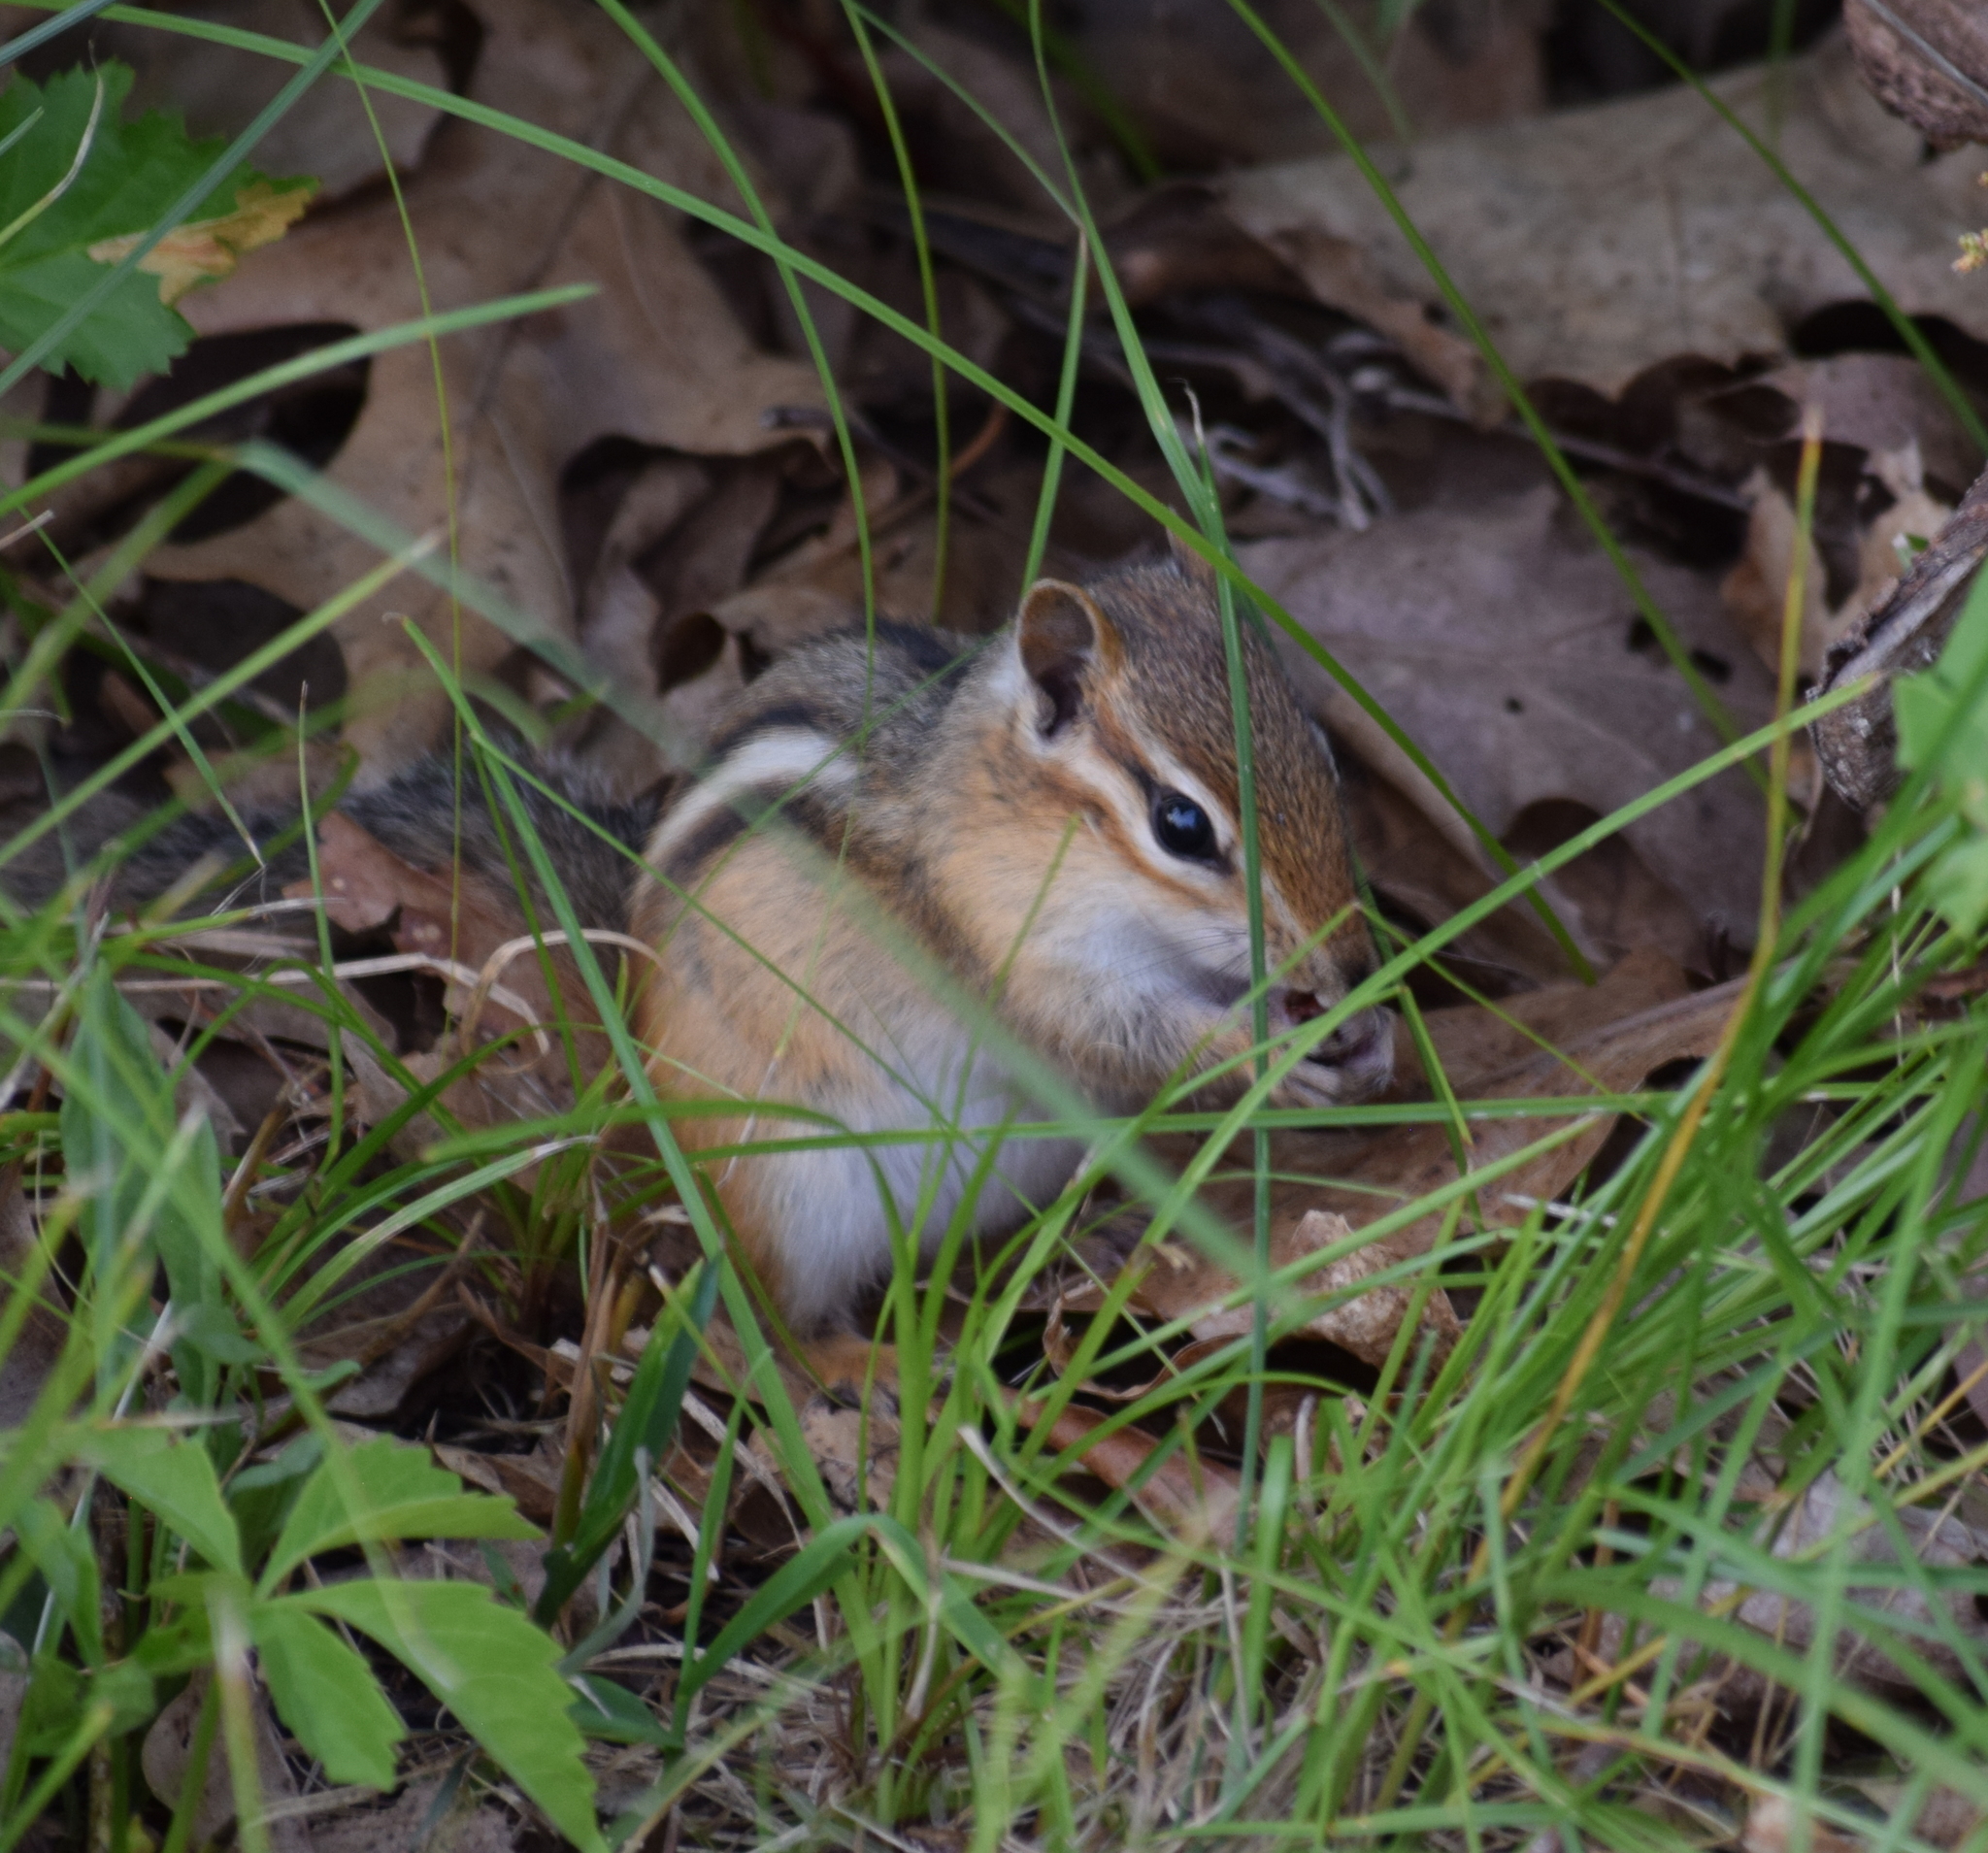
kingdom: Animalia
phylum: Chordata
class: Mammalia
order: Rodentia
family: Sciuridae
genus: Tamias
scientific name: Tamias striatus
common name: Eastern chipmunk
